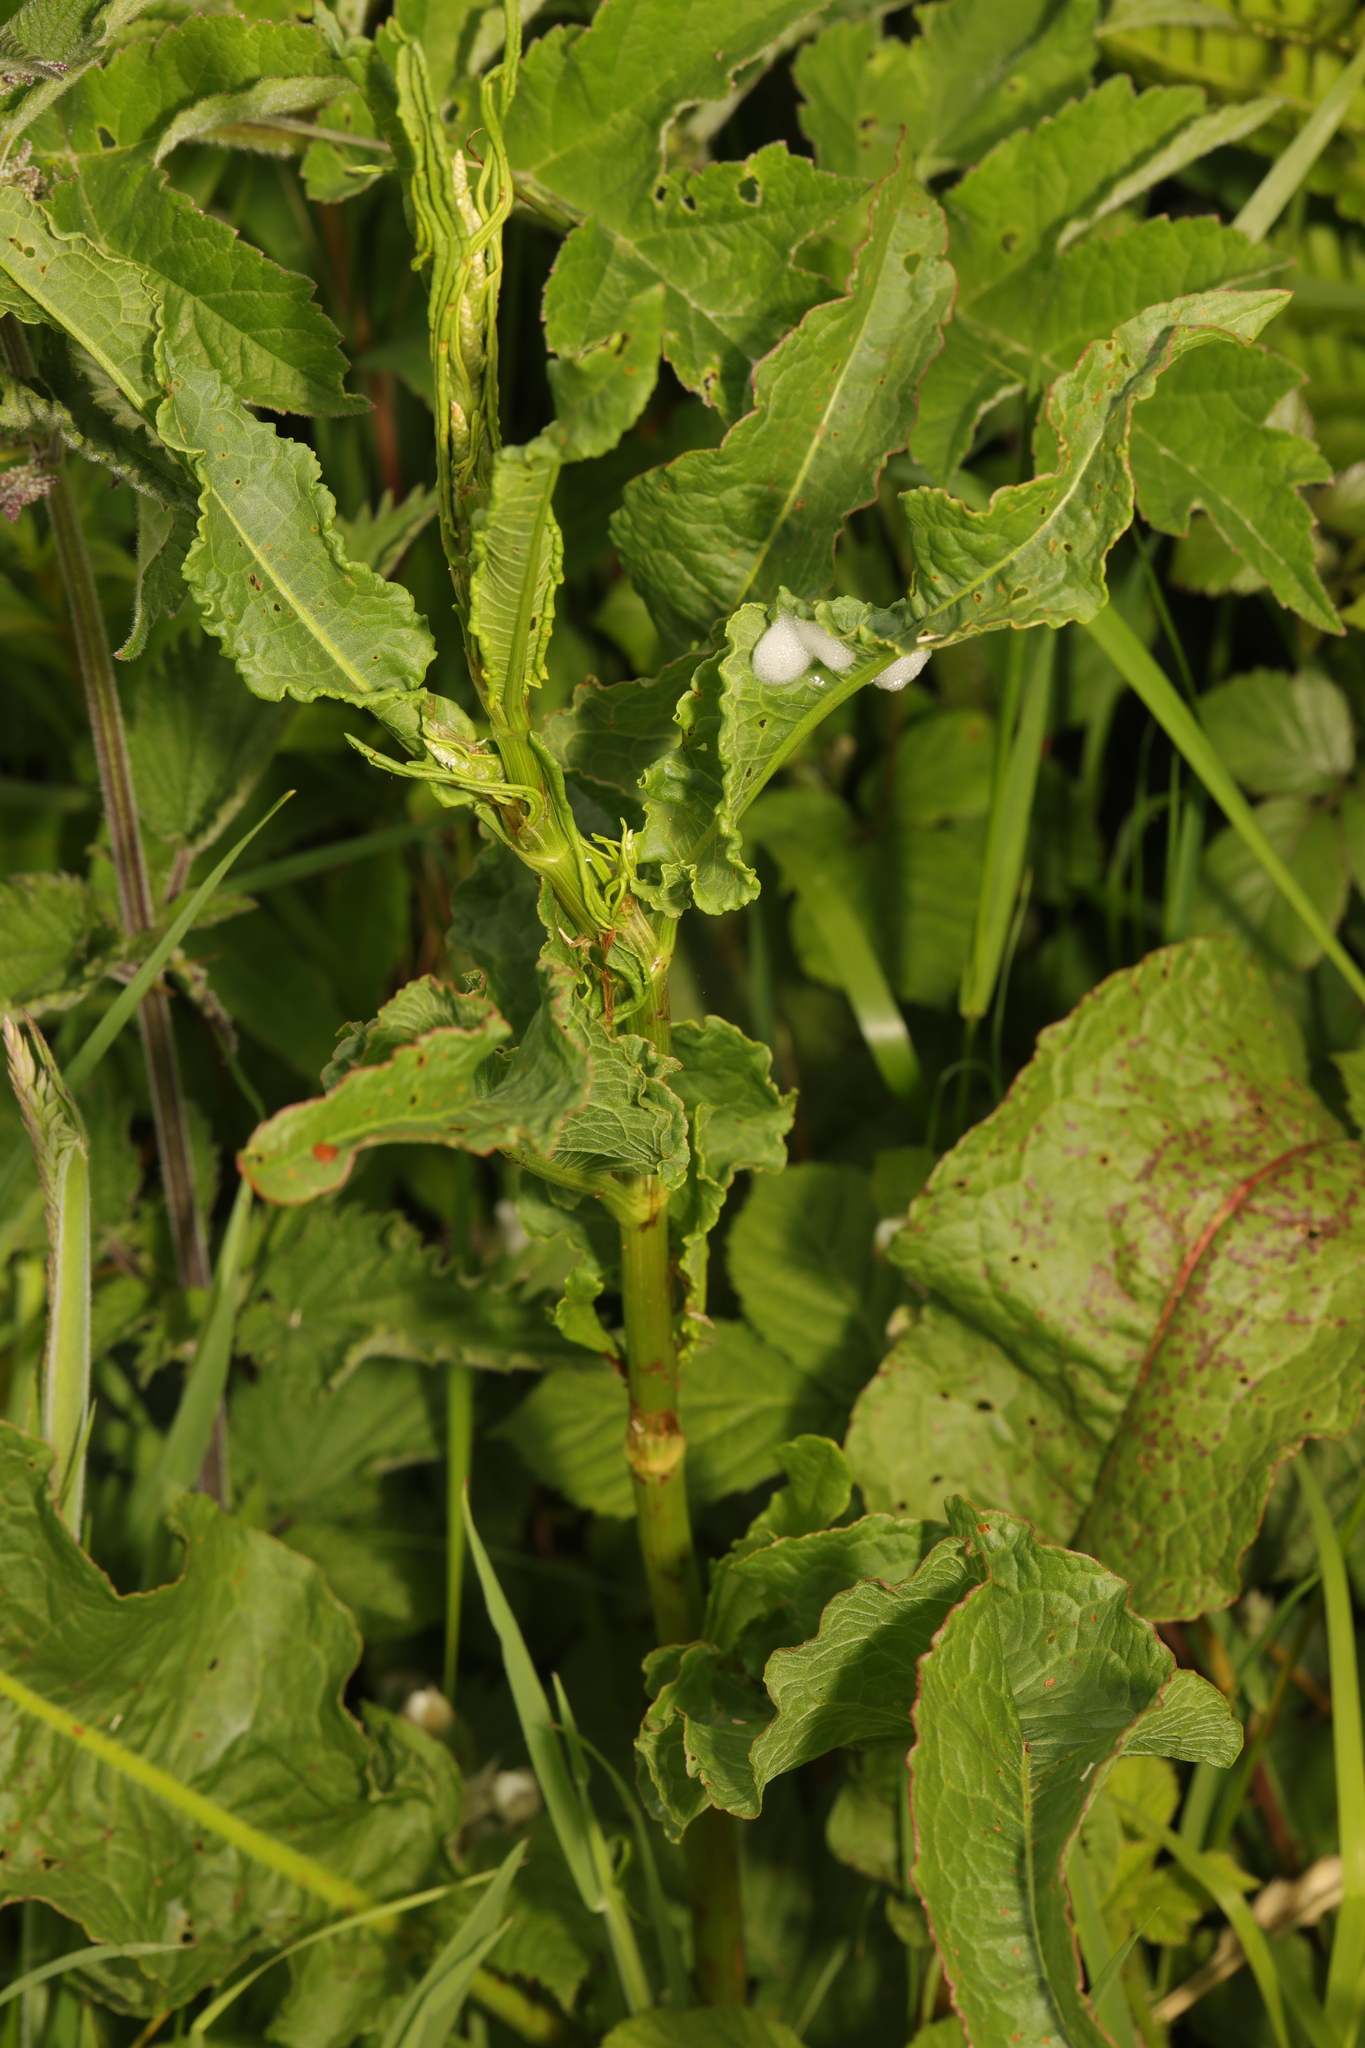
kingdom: Plantae
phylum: Tracheophyta
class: Magnoliopsida
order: Caryophyllales
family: Polygonaceae
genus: Rumex
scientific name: Rumex crispus
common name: Curled dock
